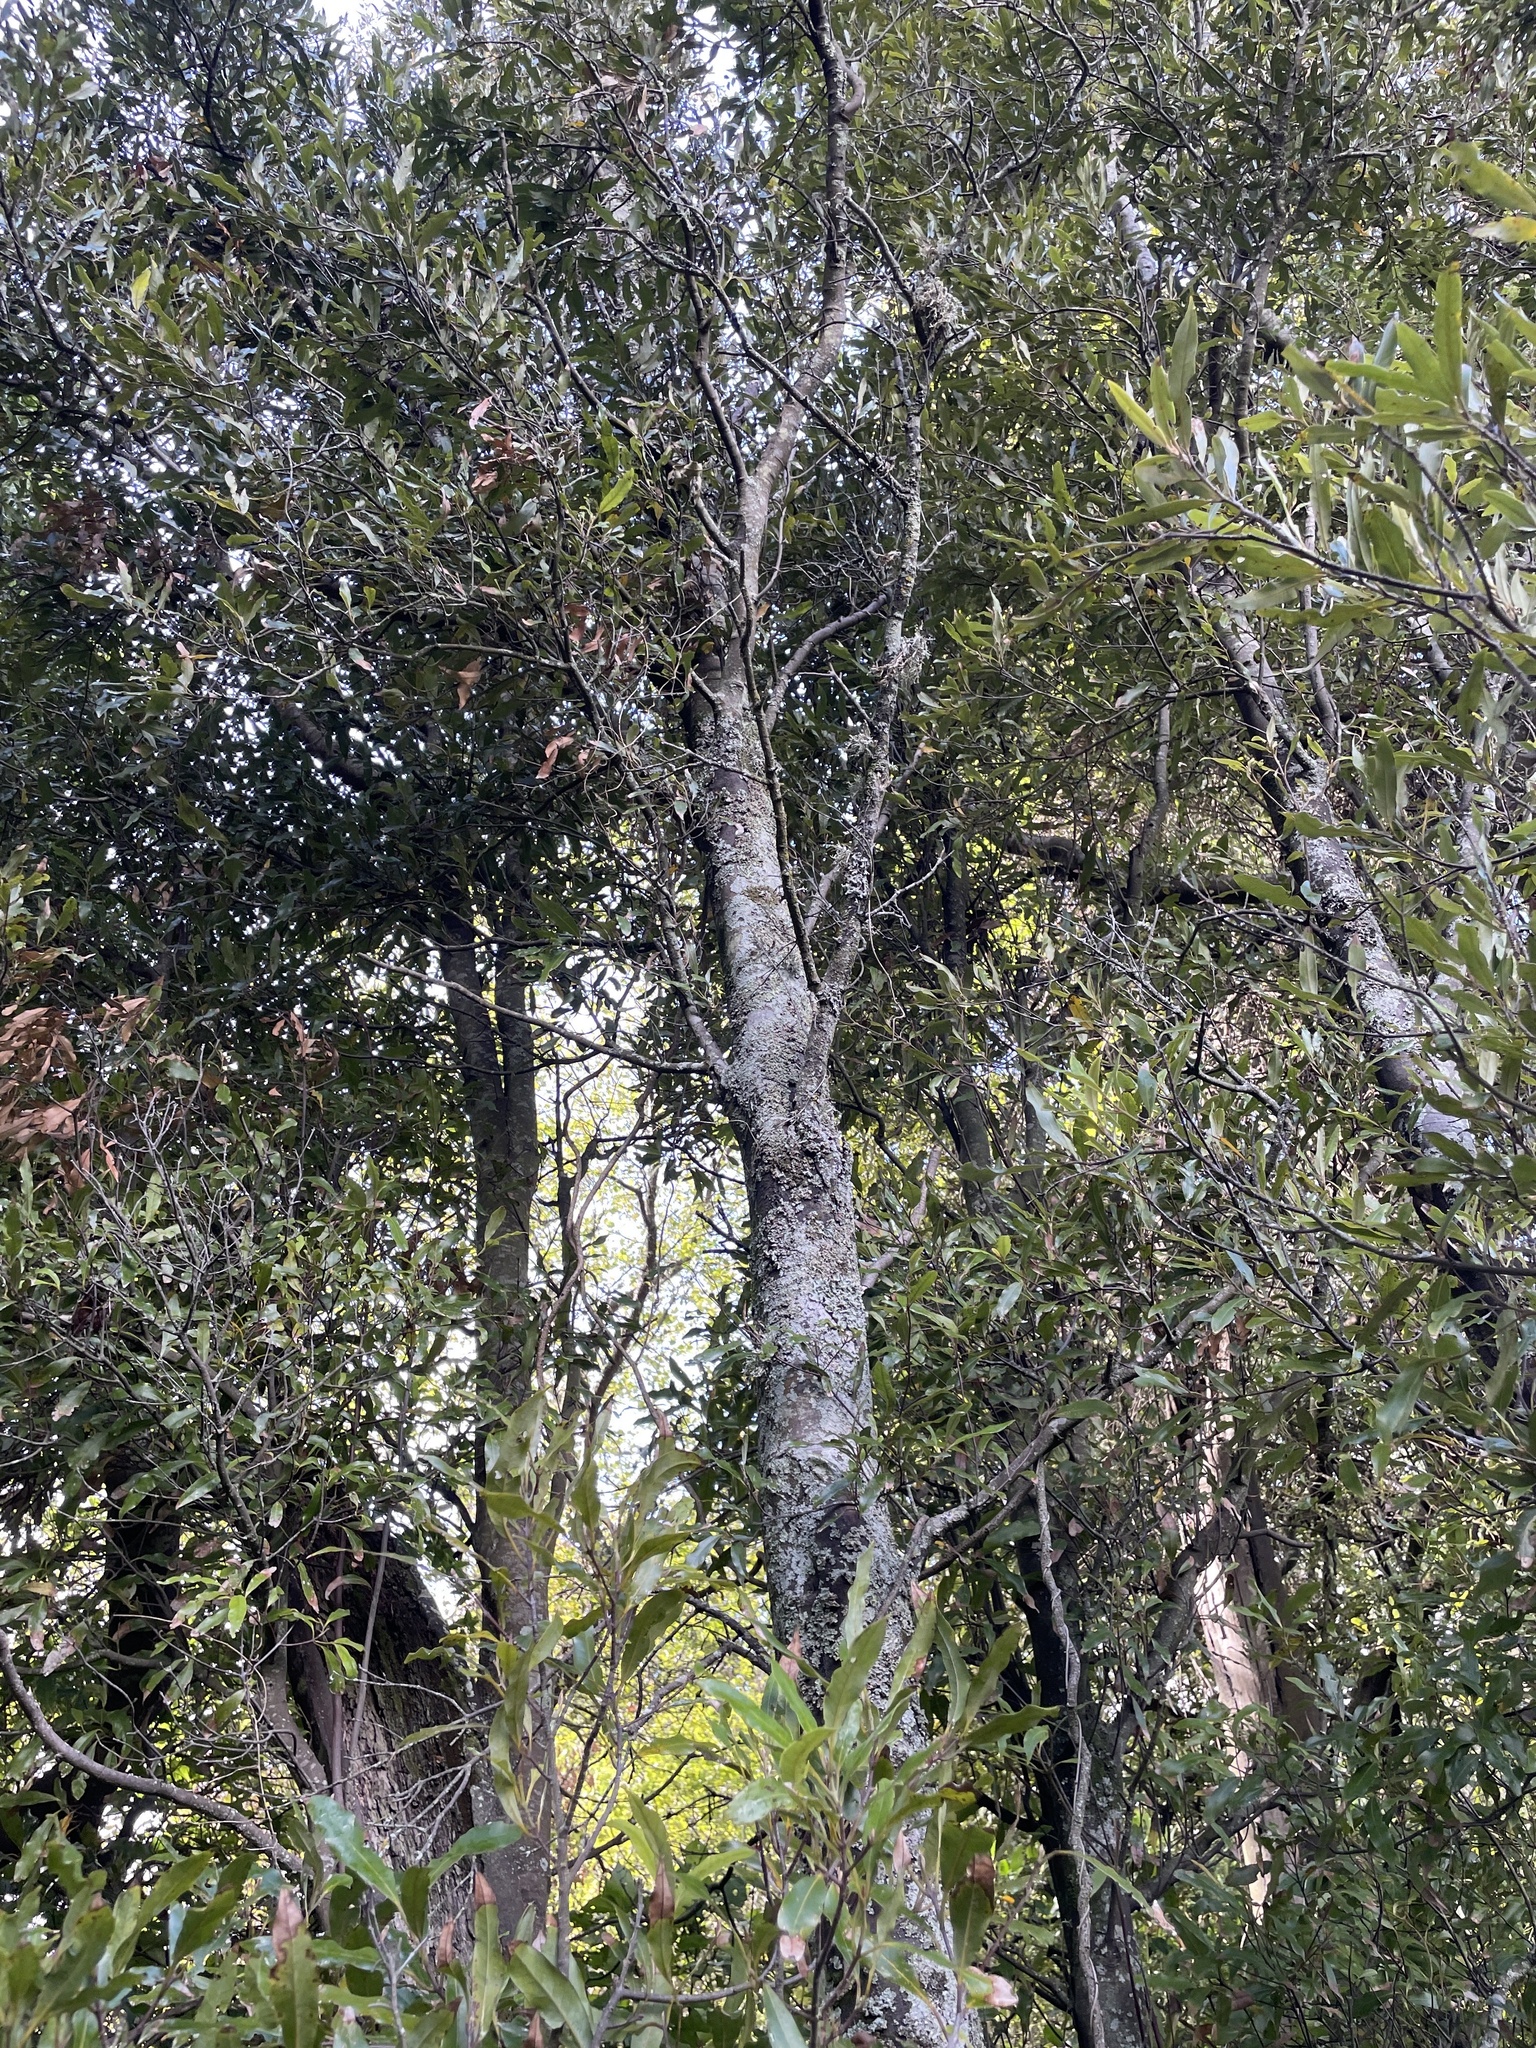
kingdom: Plantae
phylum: Tracheophyta
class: Magnoliopsida
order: Laurales
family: Lauraceae
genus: Beilschmiedia
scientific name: Beilschmiedia tawa
